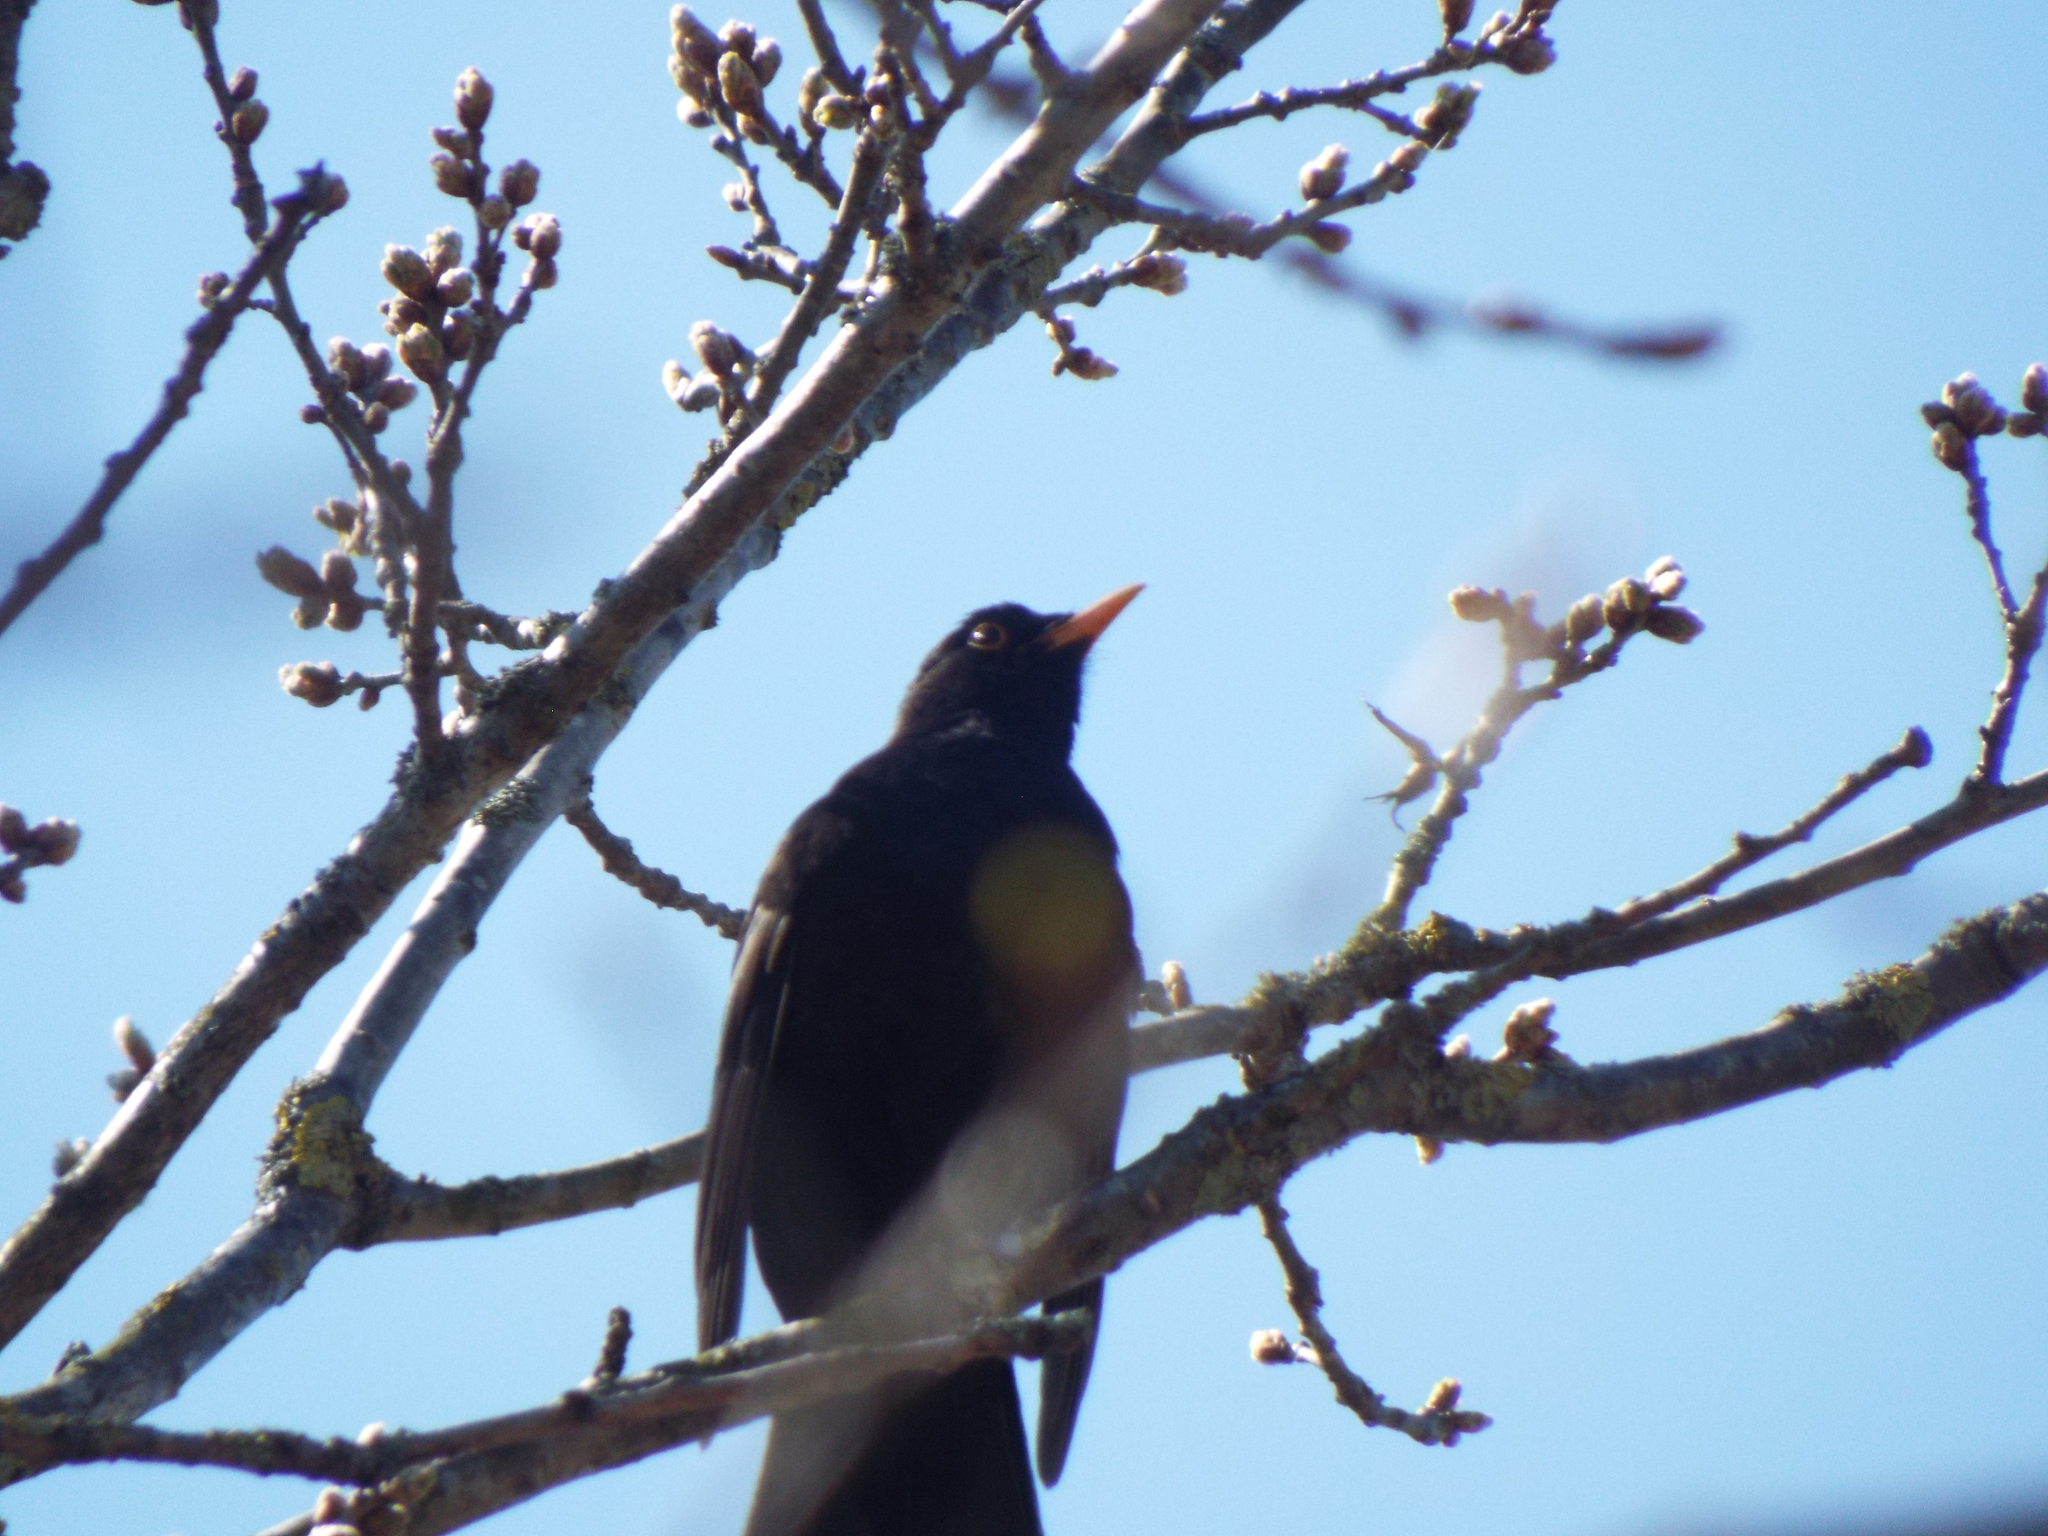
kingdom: Animalia
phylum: Chordata
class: Aves
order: Passeriformes
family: Turdidae
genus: Turdus
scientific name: Turdus merula
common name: Common blackbird
